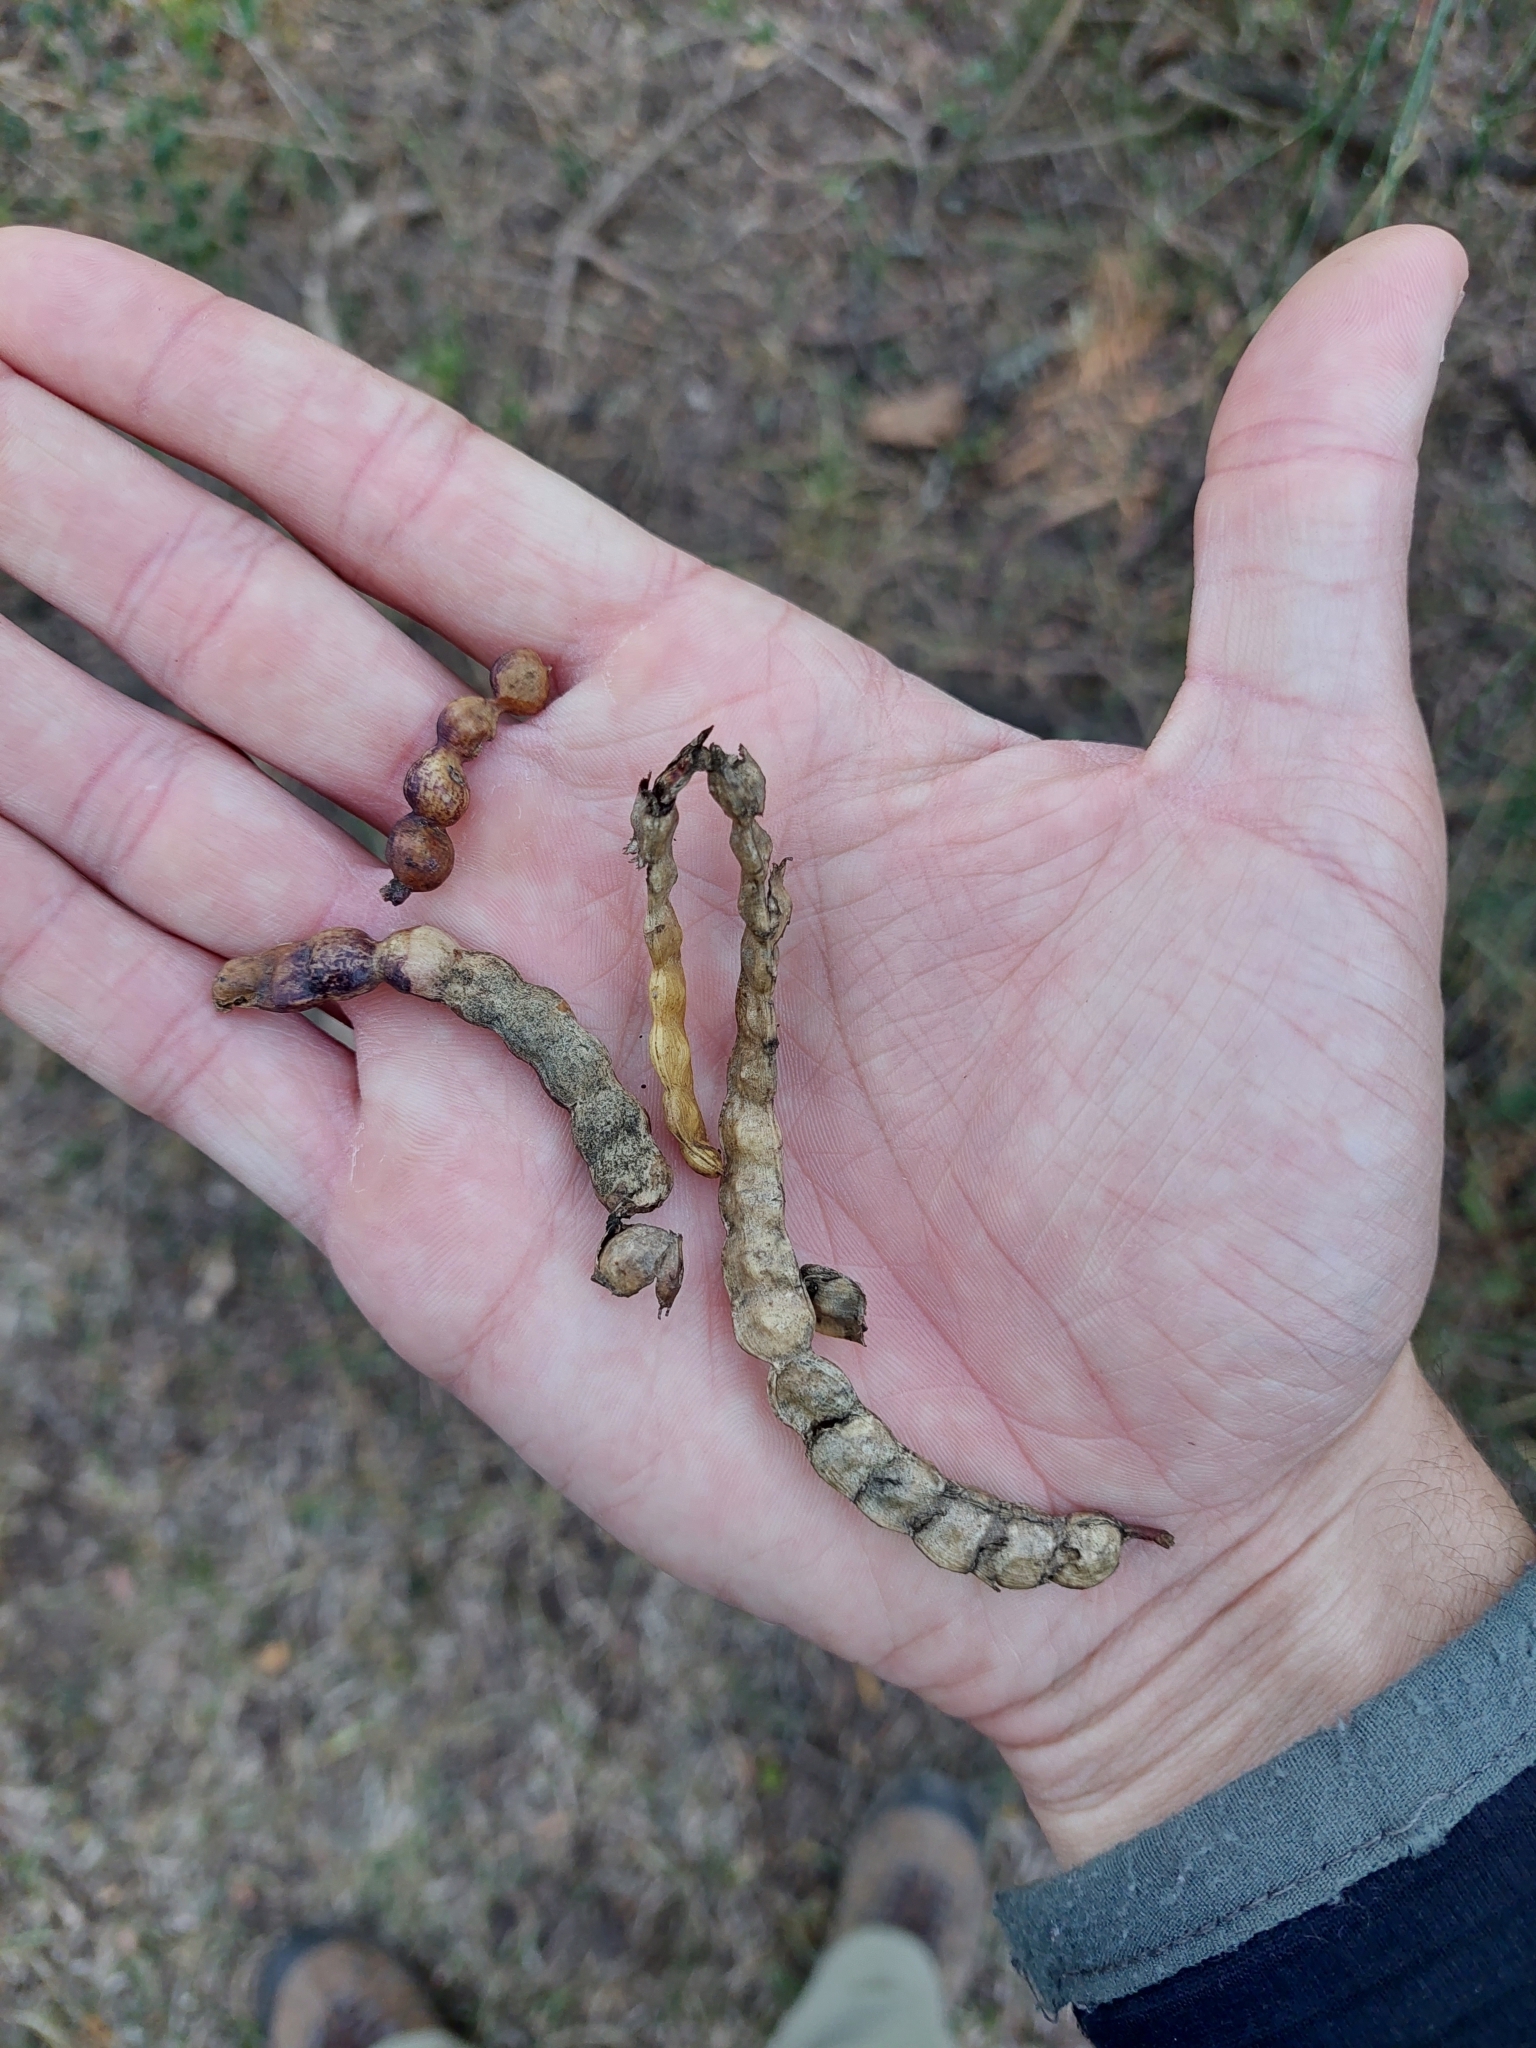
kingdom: Plantae
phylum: Tracheophyta
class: Magnoliopsida
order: Fabales
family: Fabaceae
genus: Prosopis
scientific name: Prosopis nigra
